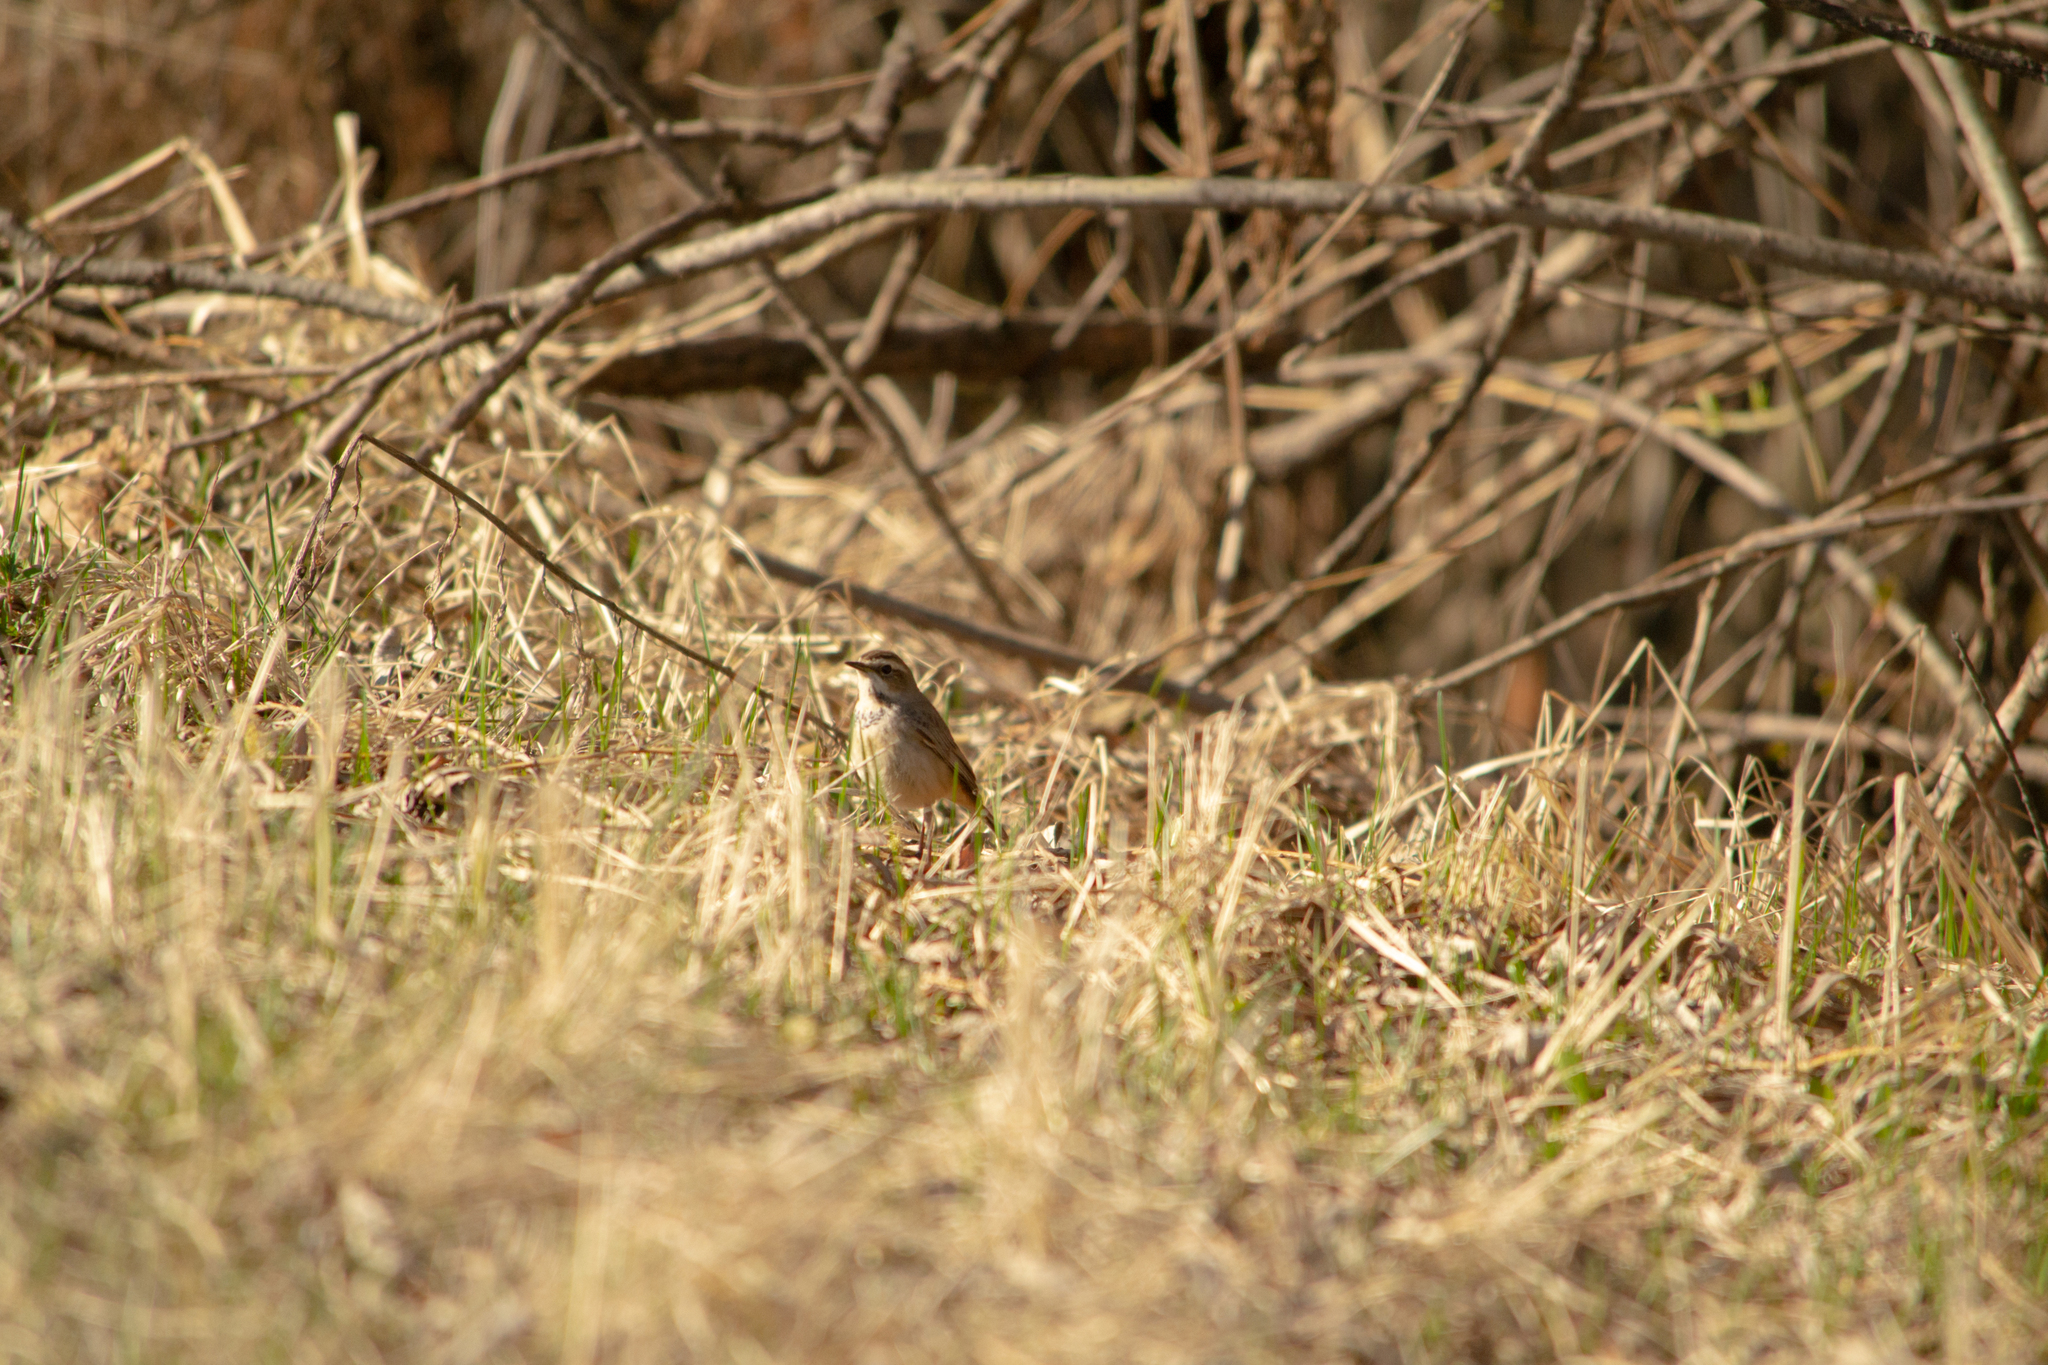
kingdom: Animalia
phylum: Chordata
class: Aves
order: Passeriformes
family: Muscicapidae
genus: Luscinia
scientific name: Luscinia svecica
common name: Bluethroat
